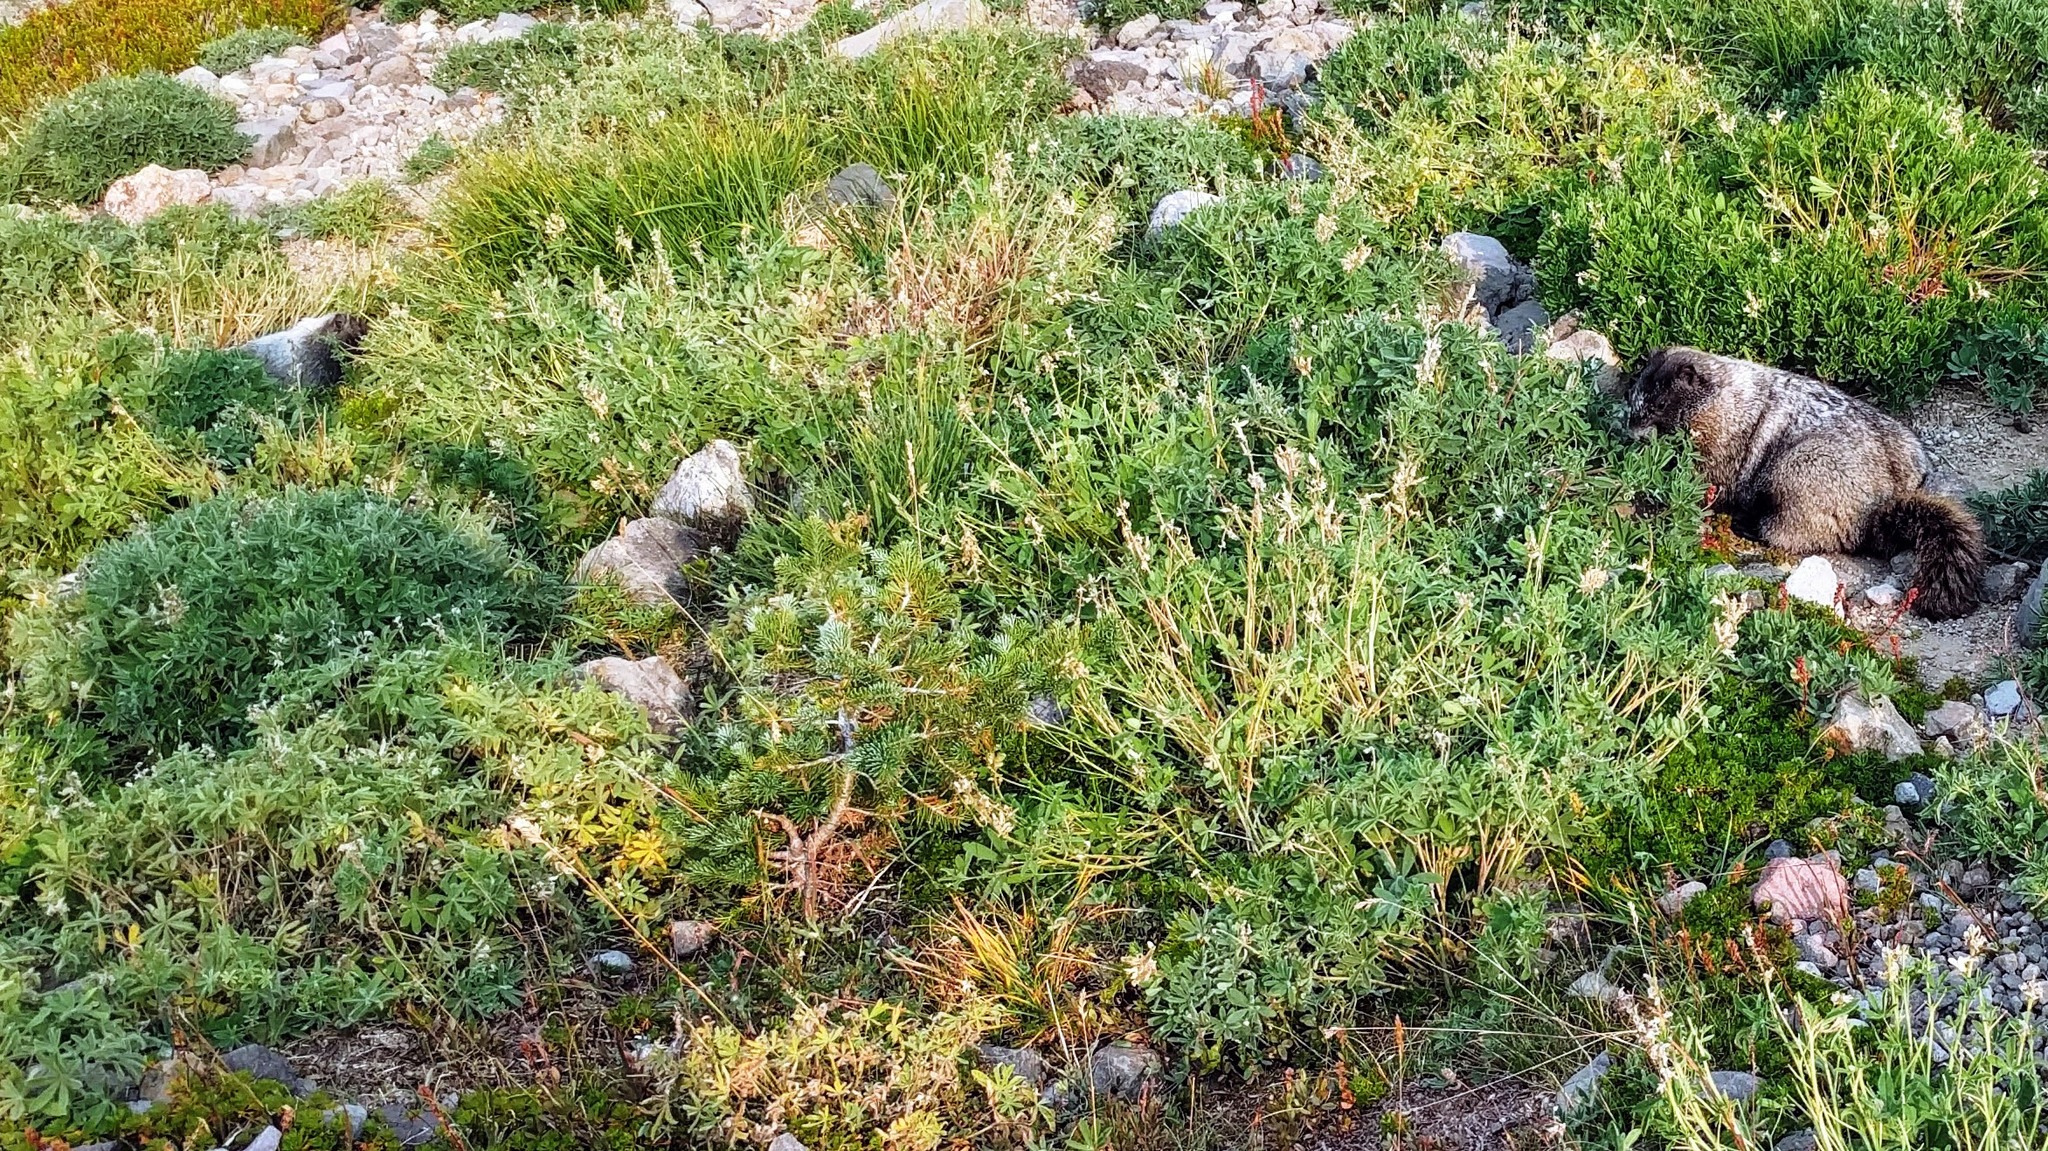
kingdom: Animalia
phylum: Chordata
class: Mammalia
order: Rodentia
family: Sciuridae
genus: Marmota
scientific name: Marmota caligata
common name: Hoary marmot
